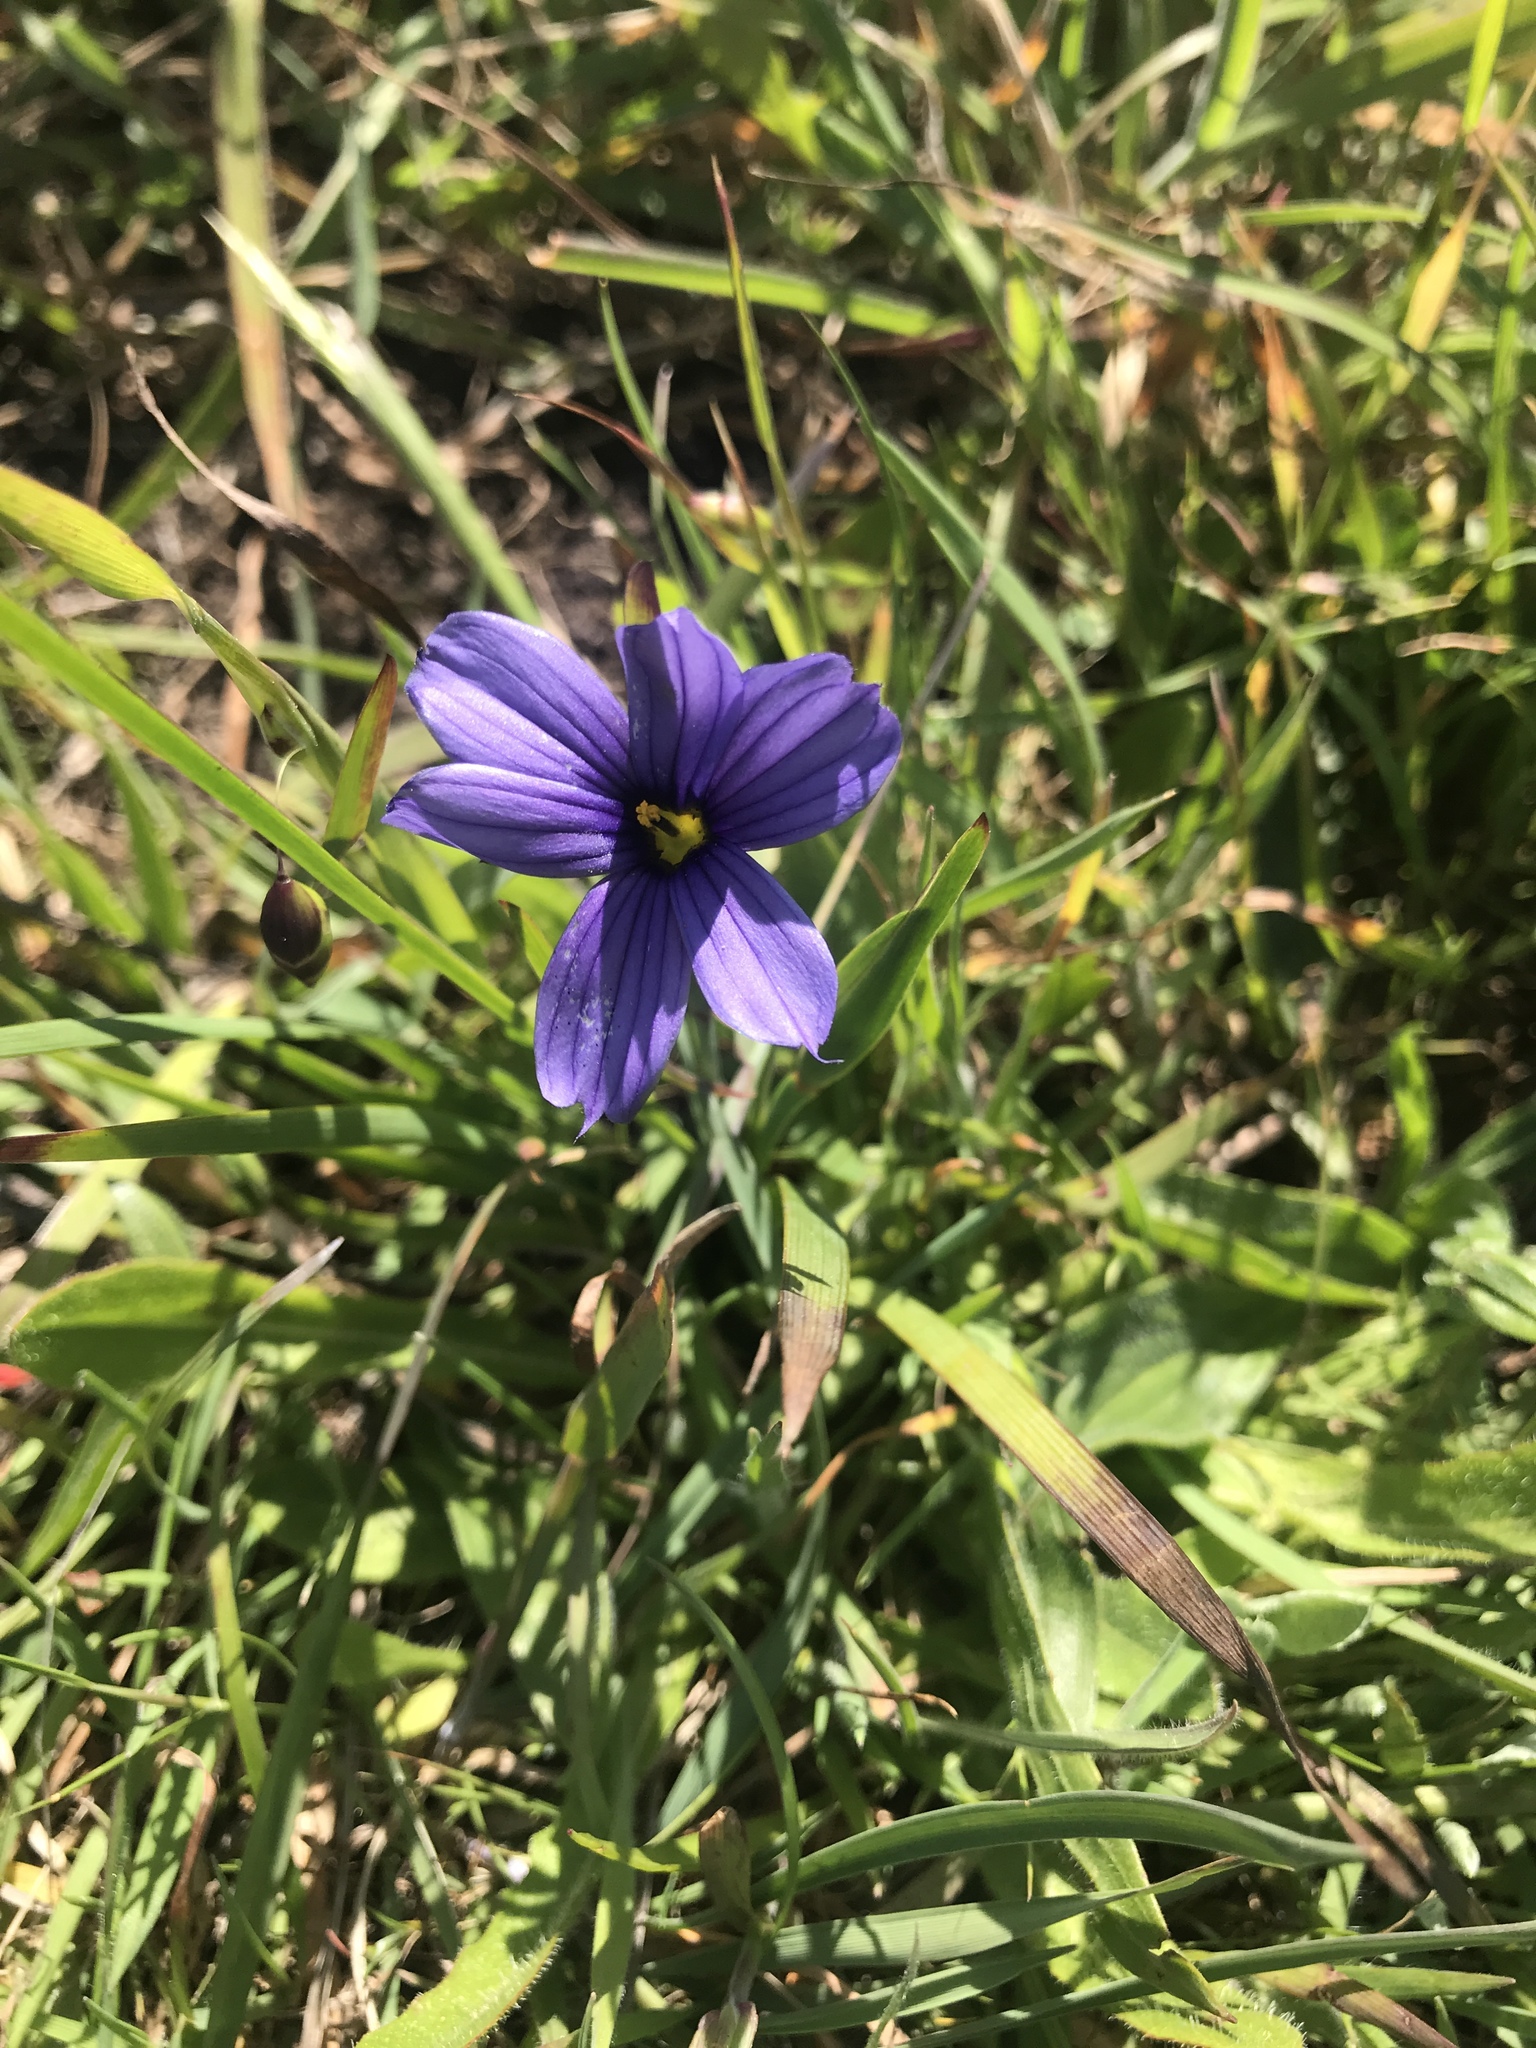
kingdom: Plantae
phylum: Tracheophyta
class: Liliopsida
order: Asparagales
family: Iridaceae
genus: Sisyrinchium
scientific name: Sisyrinchium bellum
